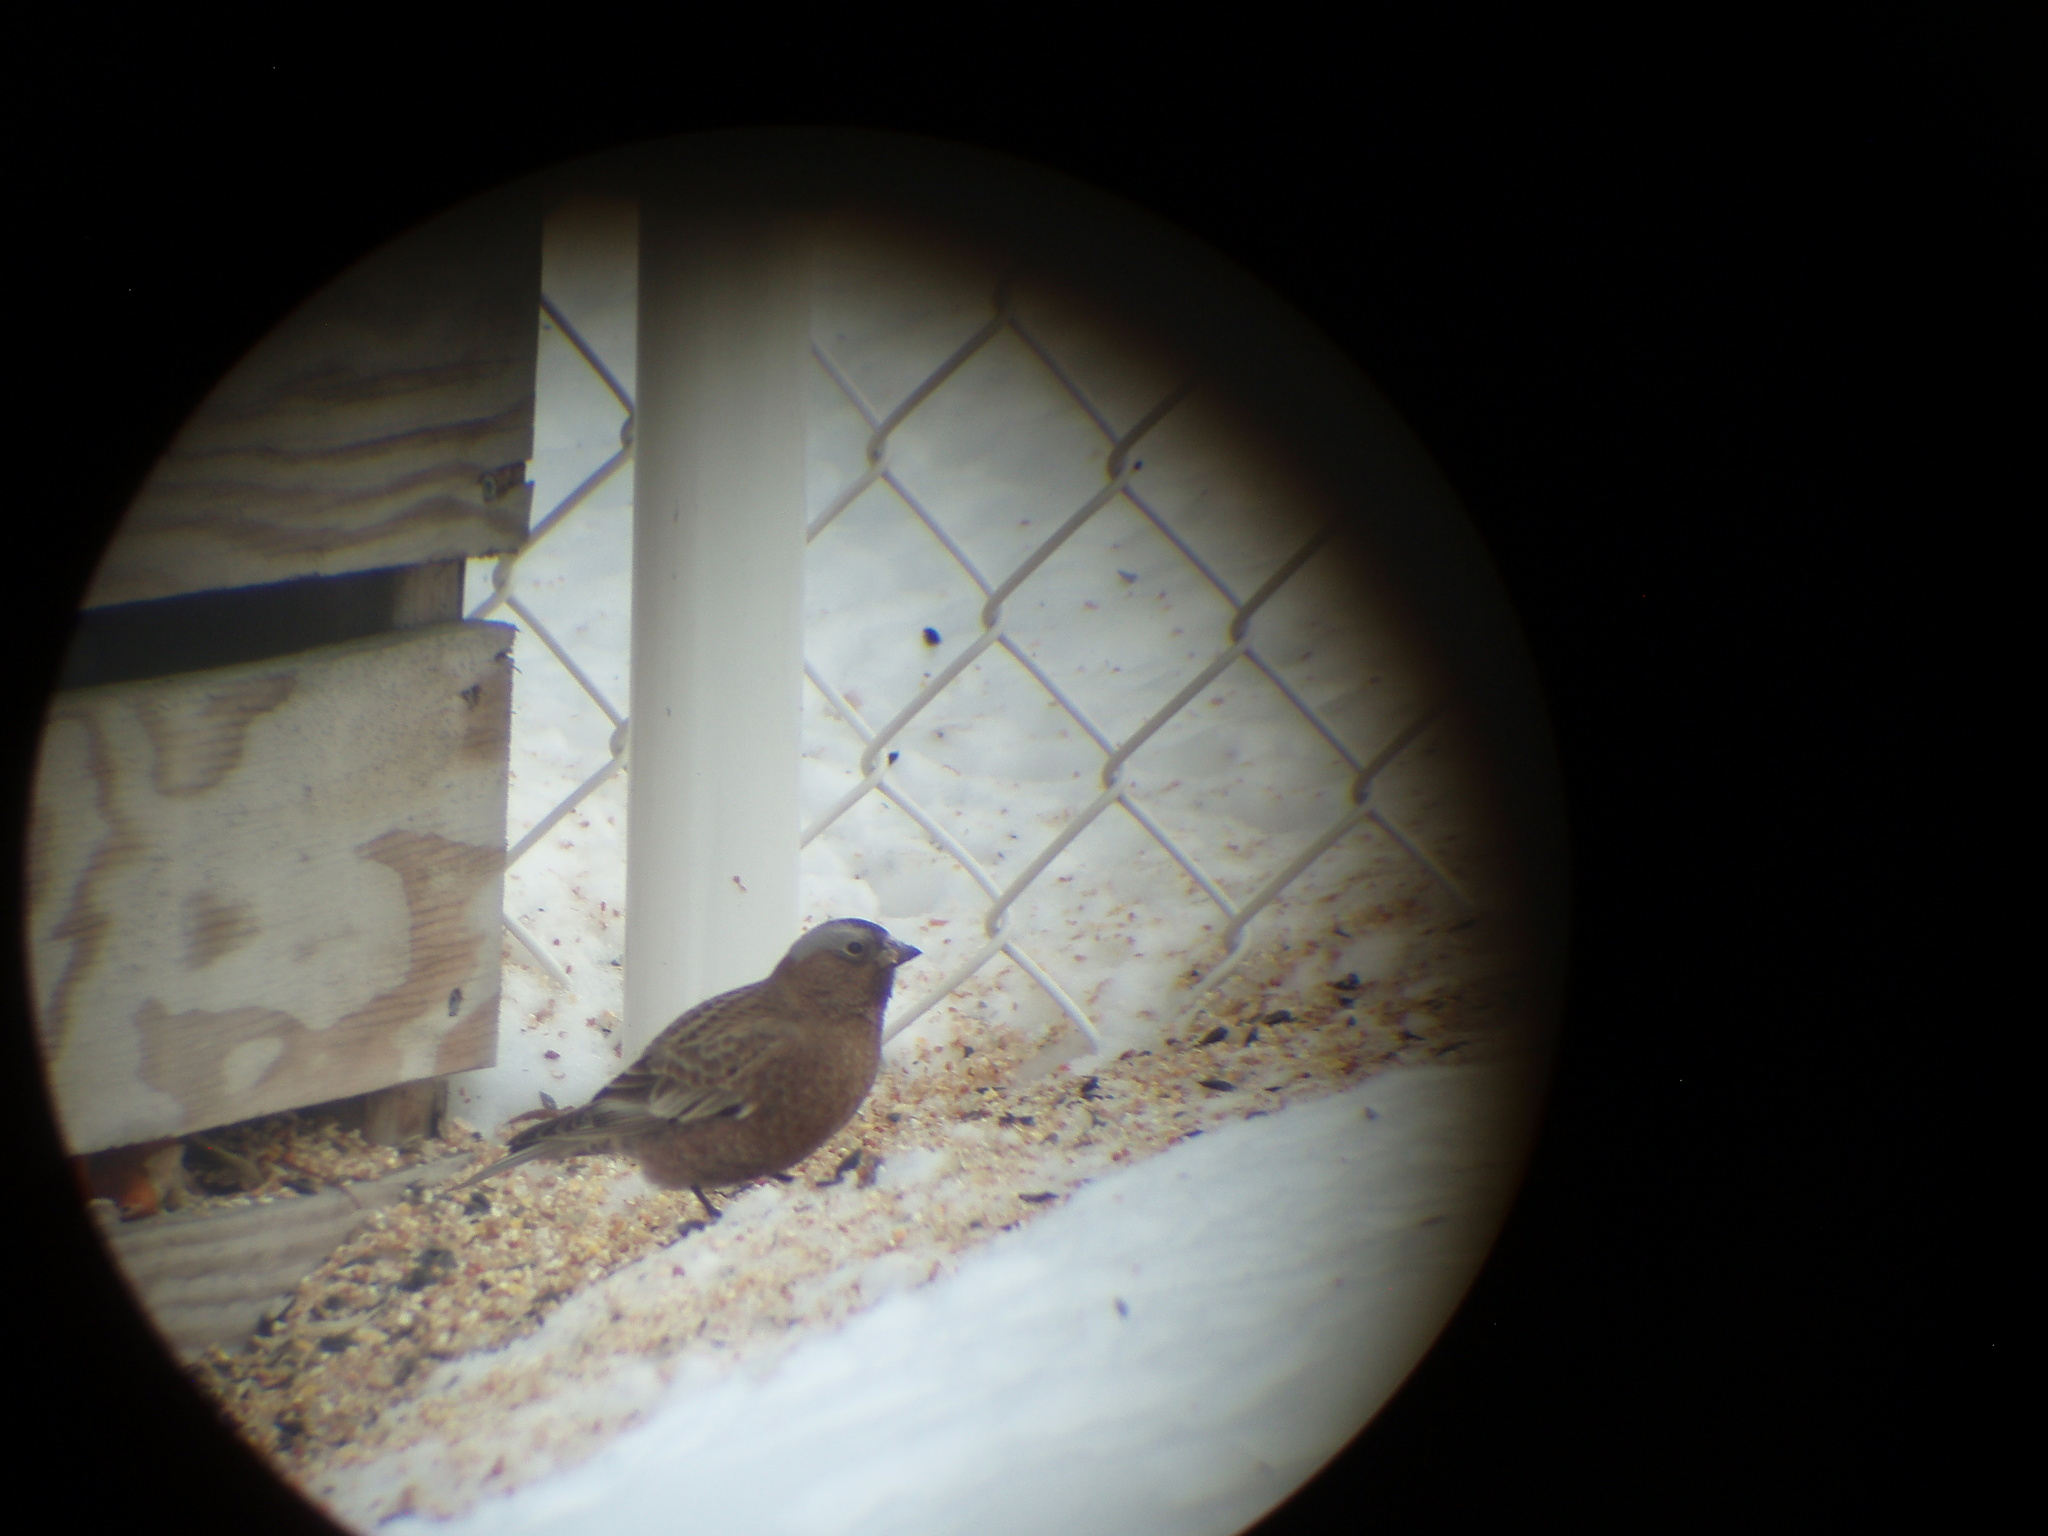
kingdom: Animalia
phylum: Chordata
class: Aves
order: Passeriformes
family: Fringillidae
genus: Leucosticte
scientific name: Leucosticte tephrocotis
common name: Gray-crowned rosy-finch
